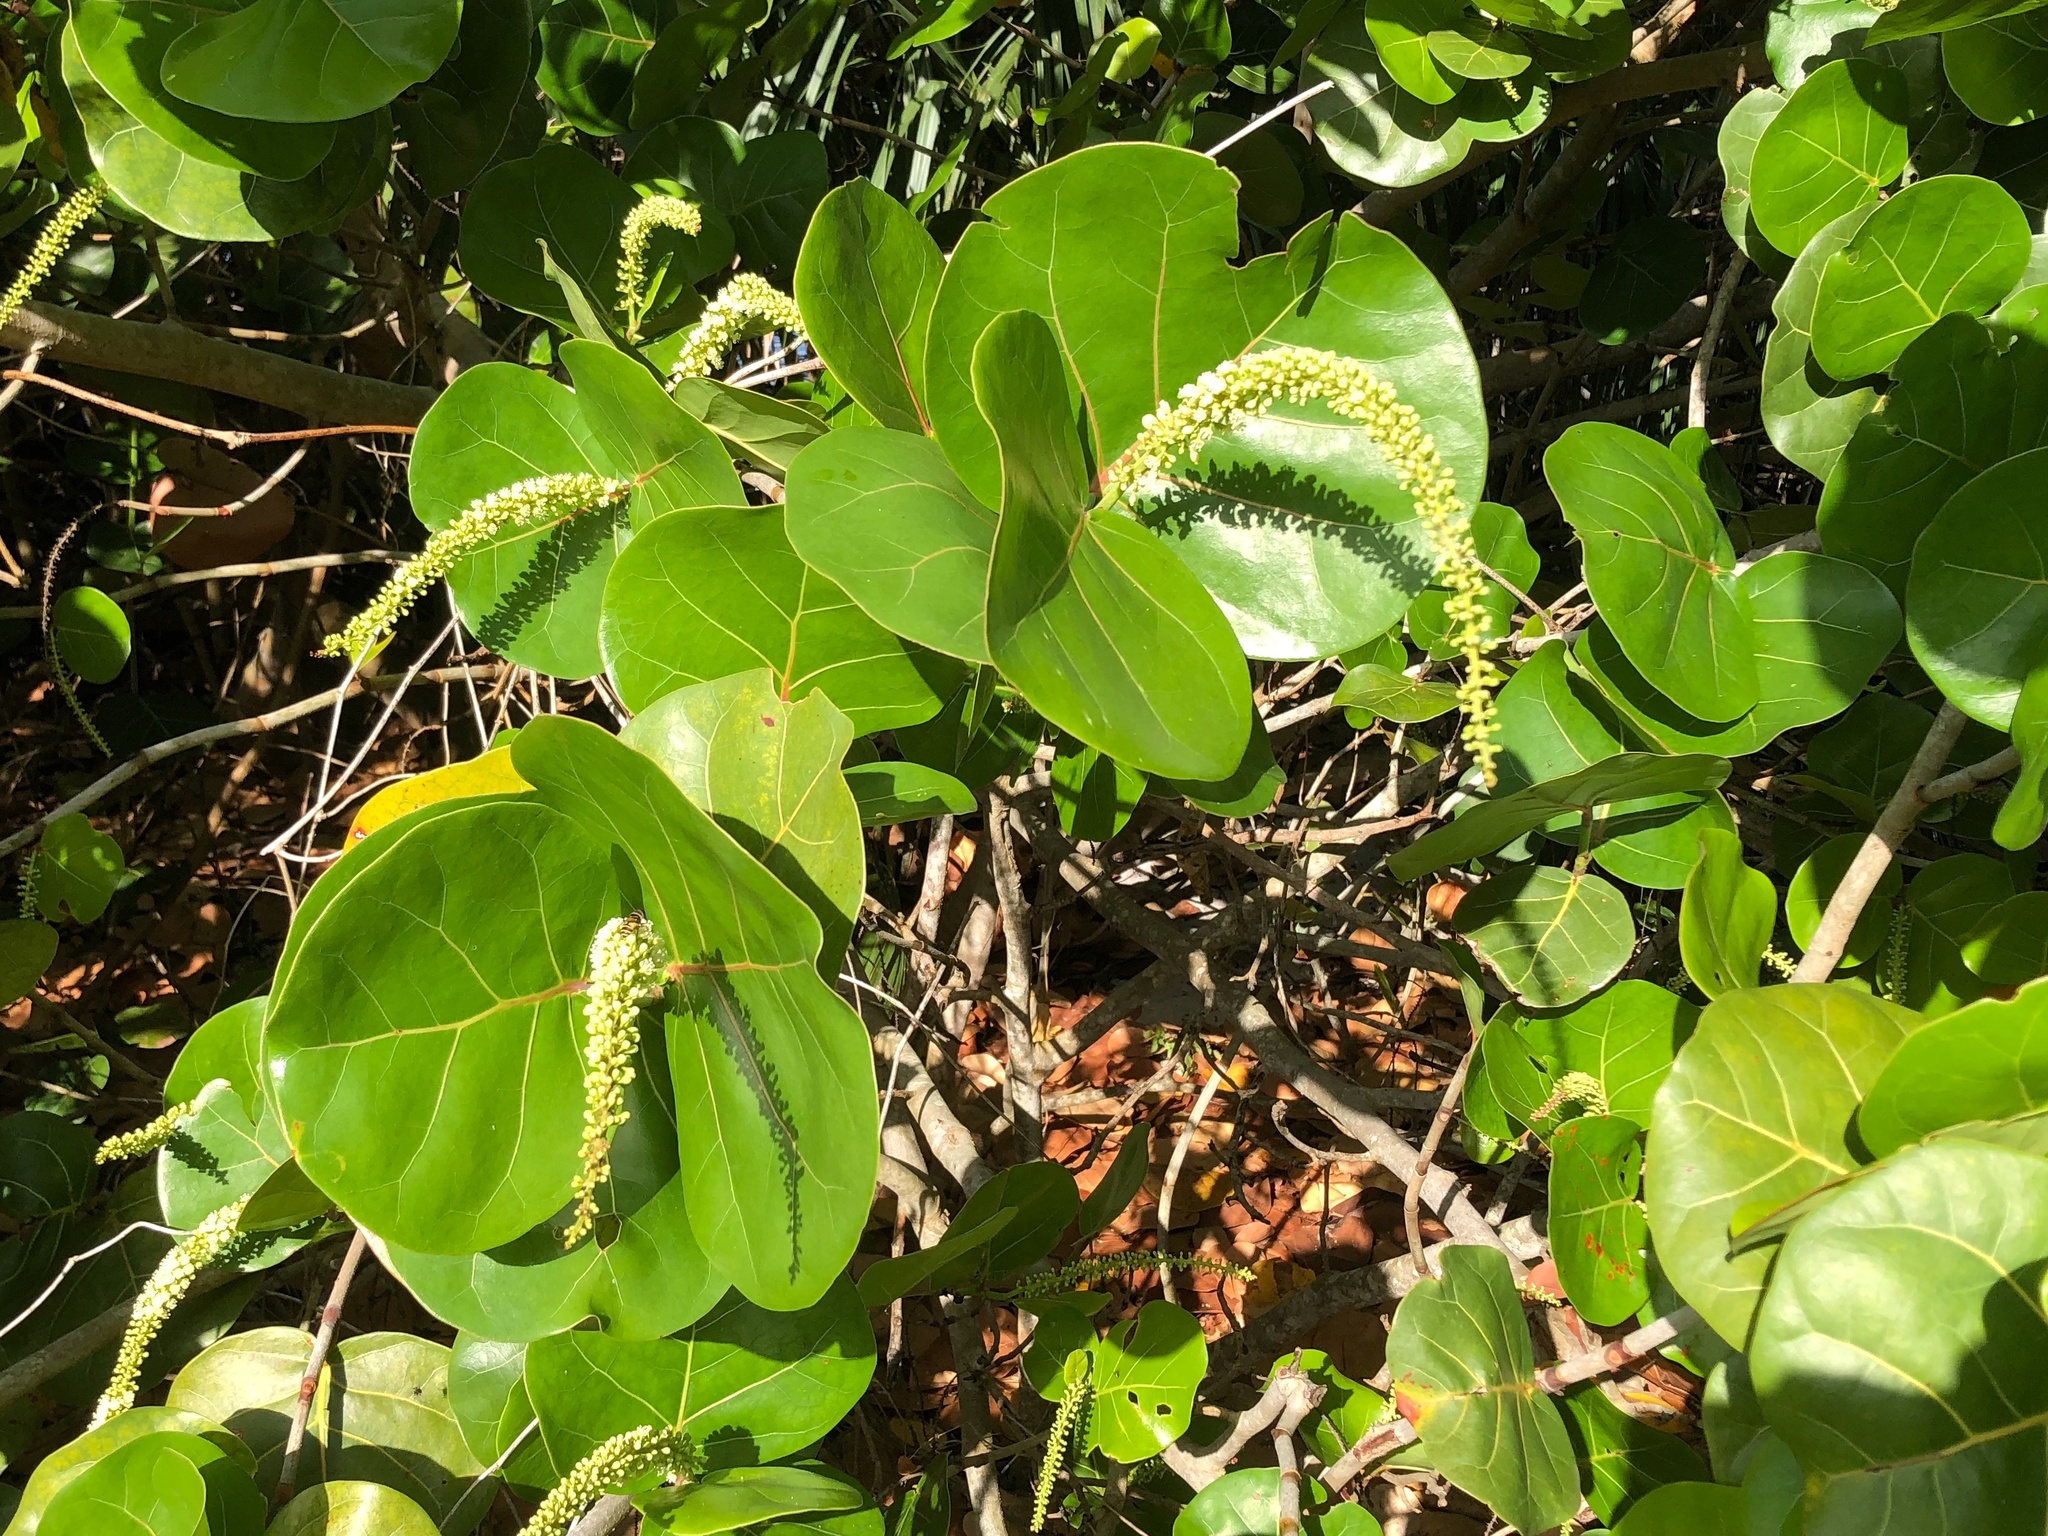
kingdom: Plantae
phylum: Tracheophyta
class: Magnoliopsida
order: Caryophyllales
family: Polygonaceae
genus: Coccoloba
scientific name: Coccoloba uvifera
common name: Seagrape
